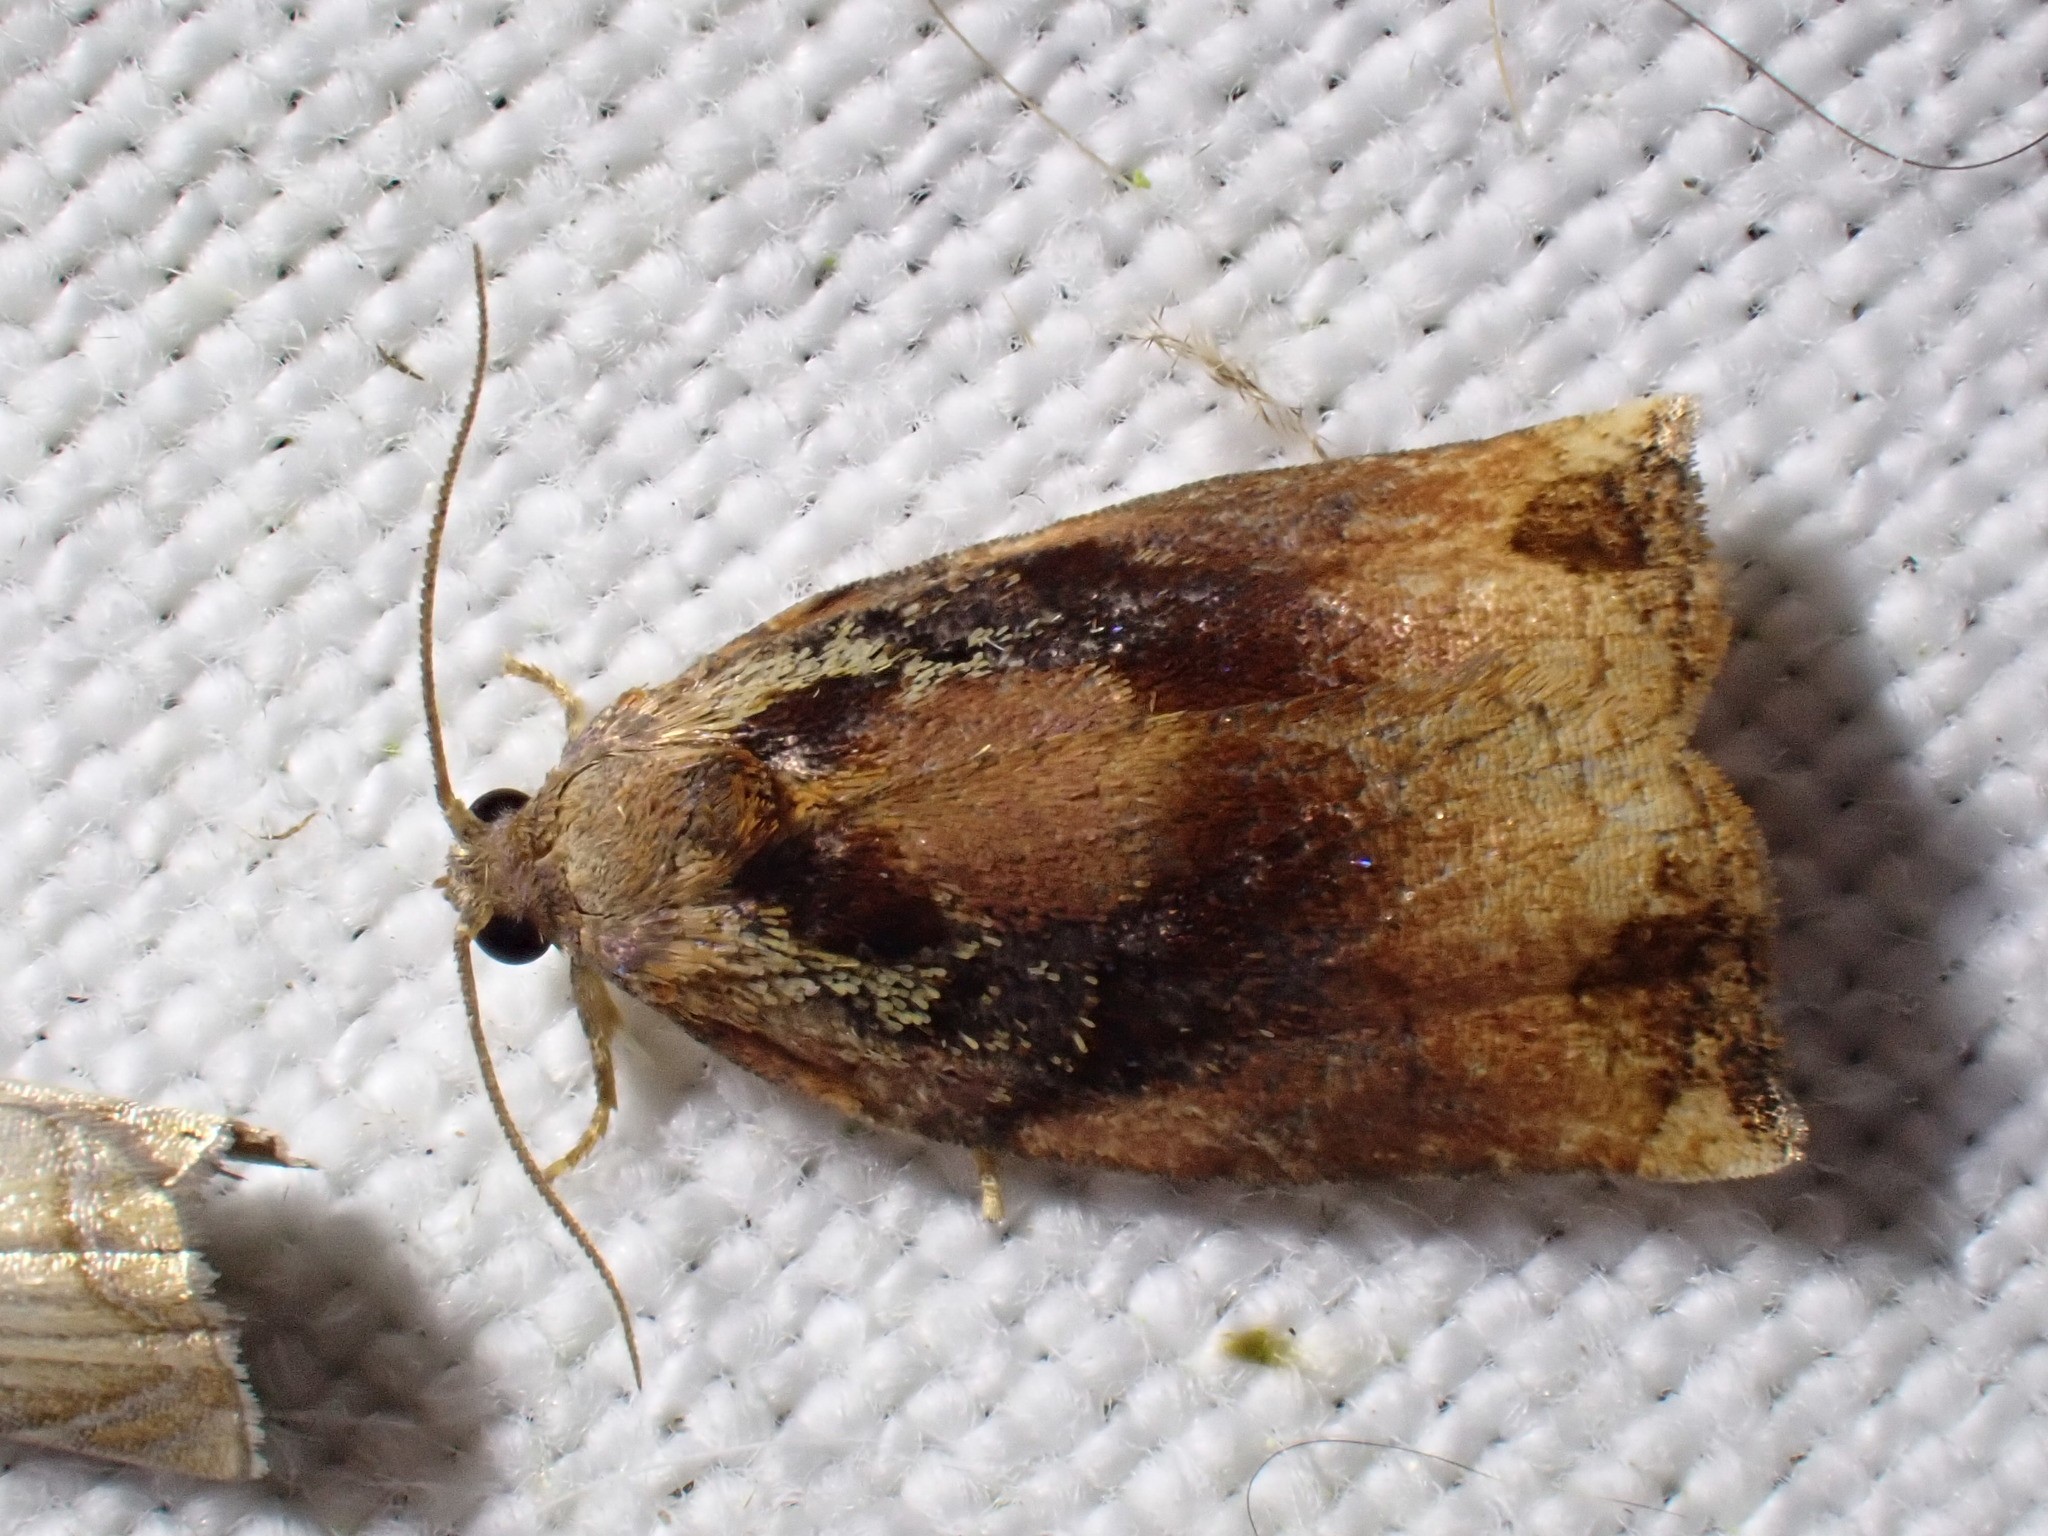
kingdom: Animalia
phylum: Arthropoda
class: Insecta
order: Lepidoptera
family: Tortricidae
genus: Archips
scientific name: Archips podana
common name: Large fruit-tree tortrix
